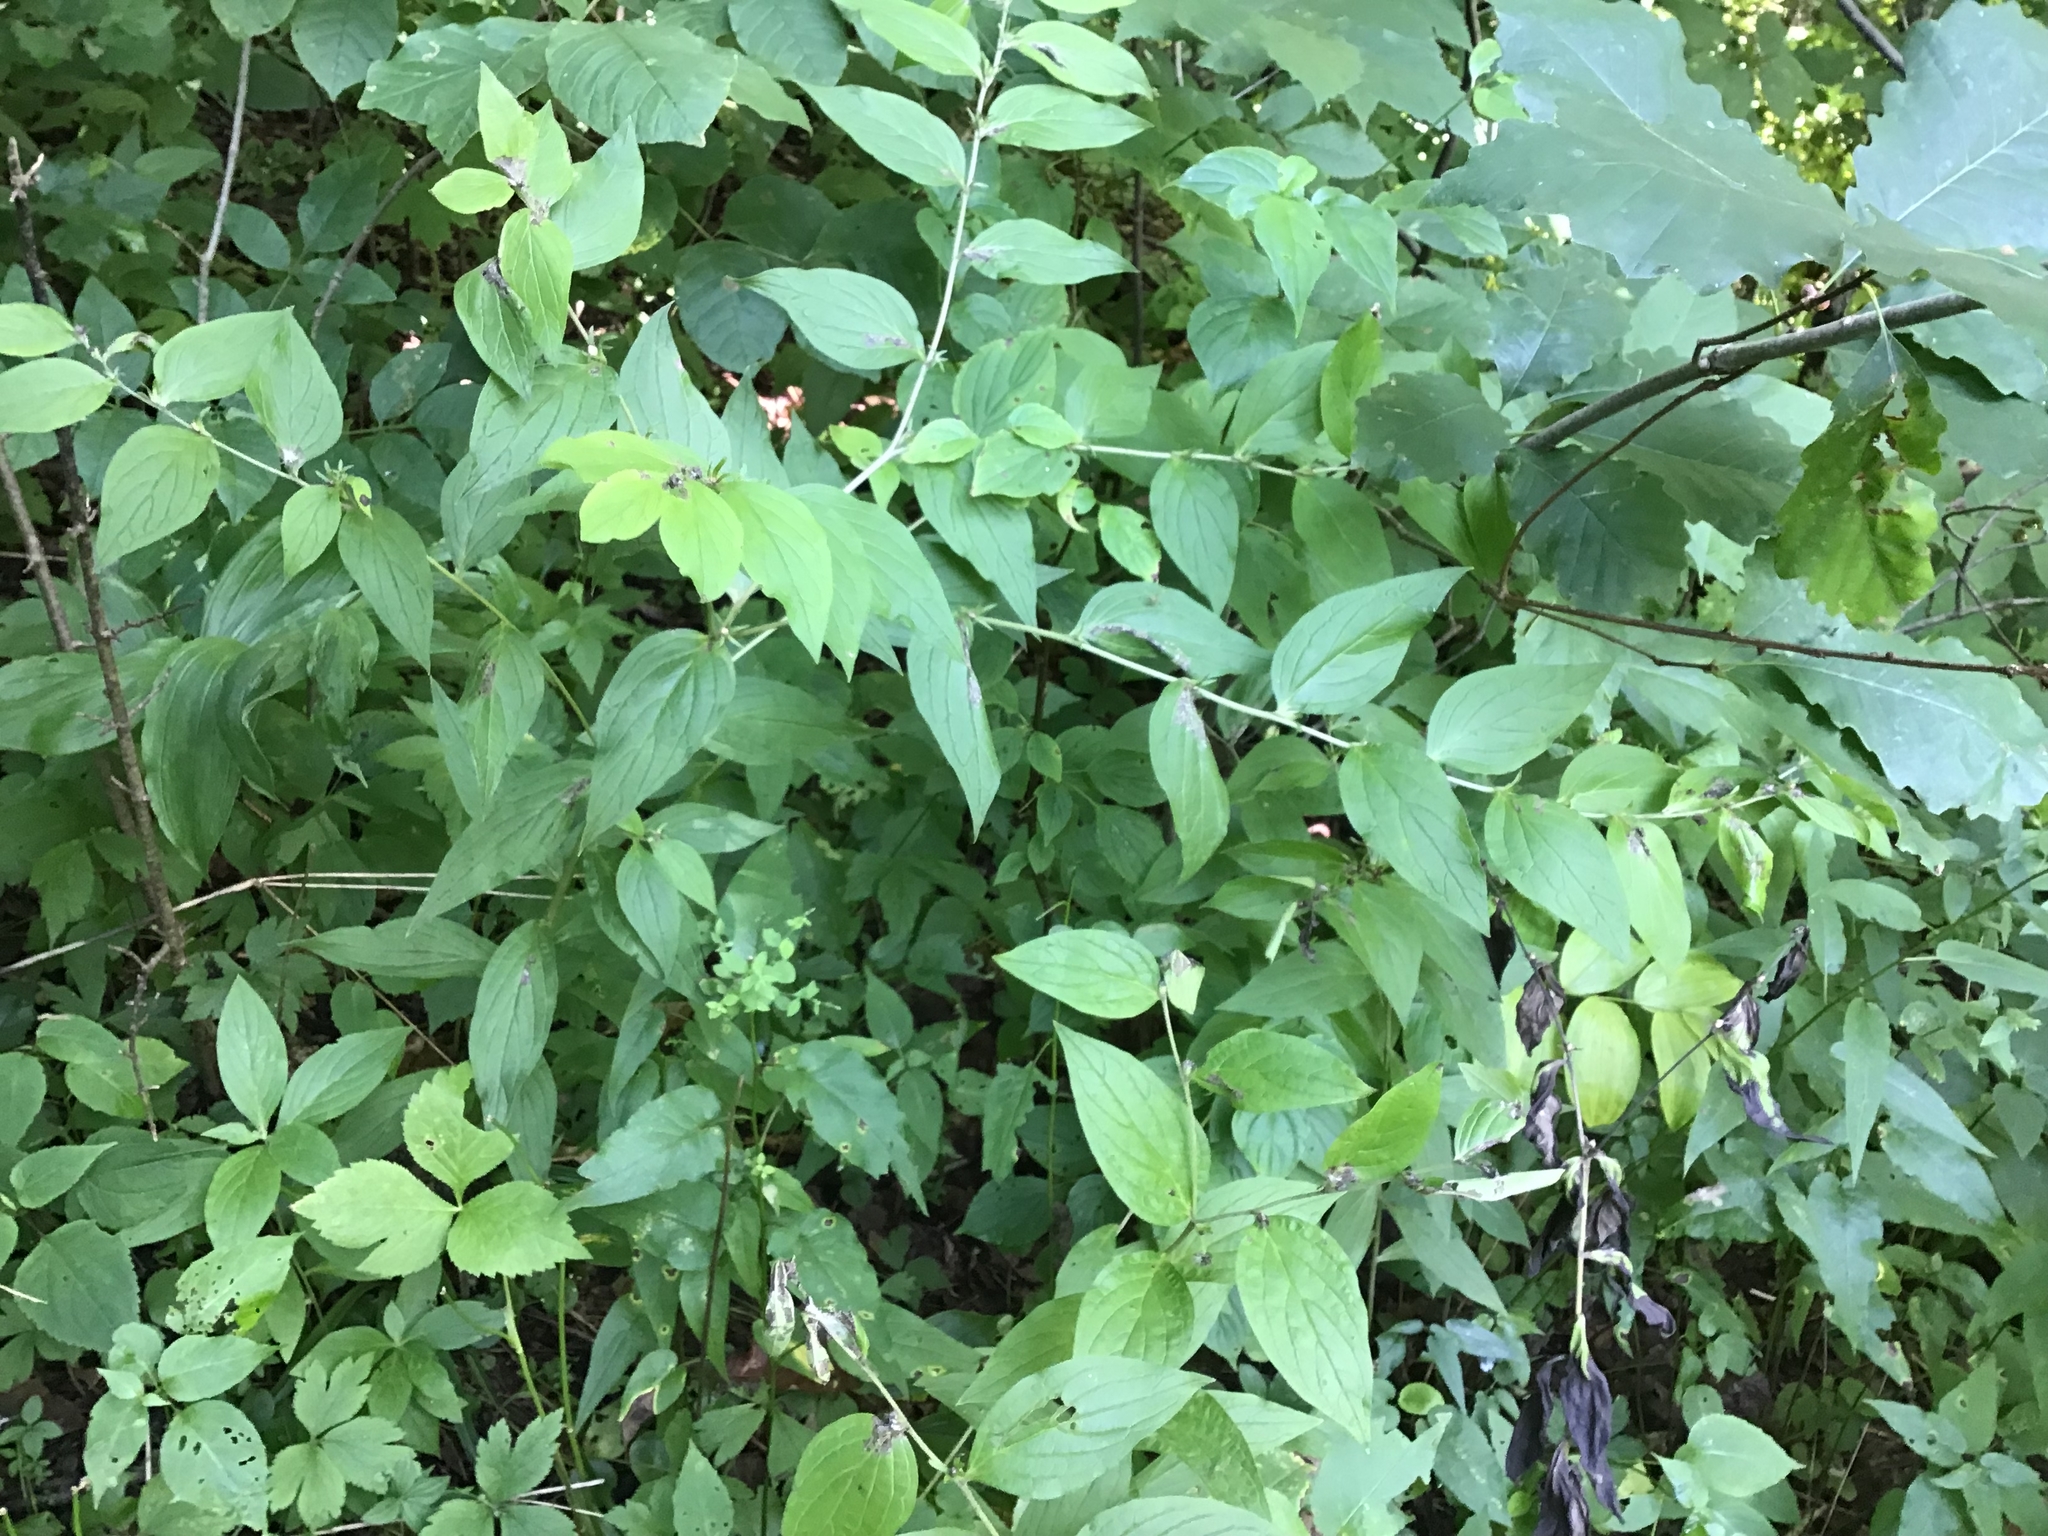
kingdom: Plantae
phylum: Tracheophyta
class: Magnoliopsida
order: Boraginales
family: Boraginaceae
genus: Lithospermum
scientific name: Lithospermum latifolium
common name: American gromwell
